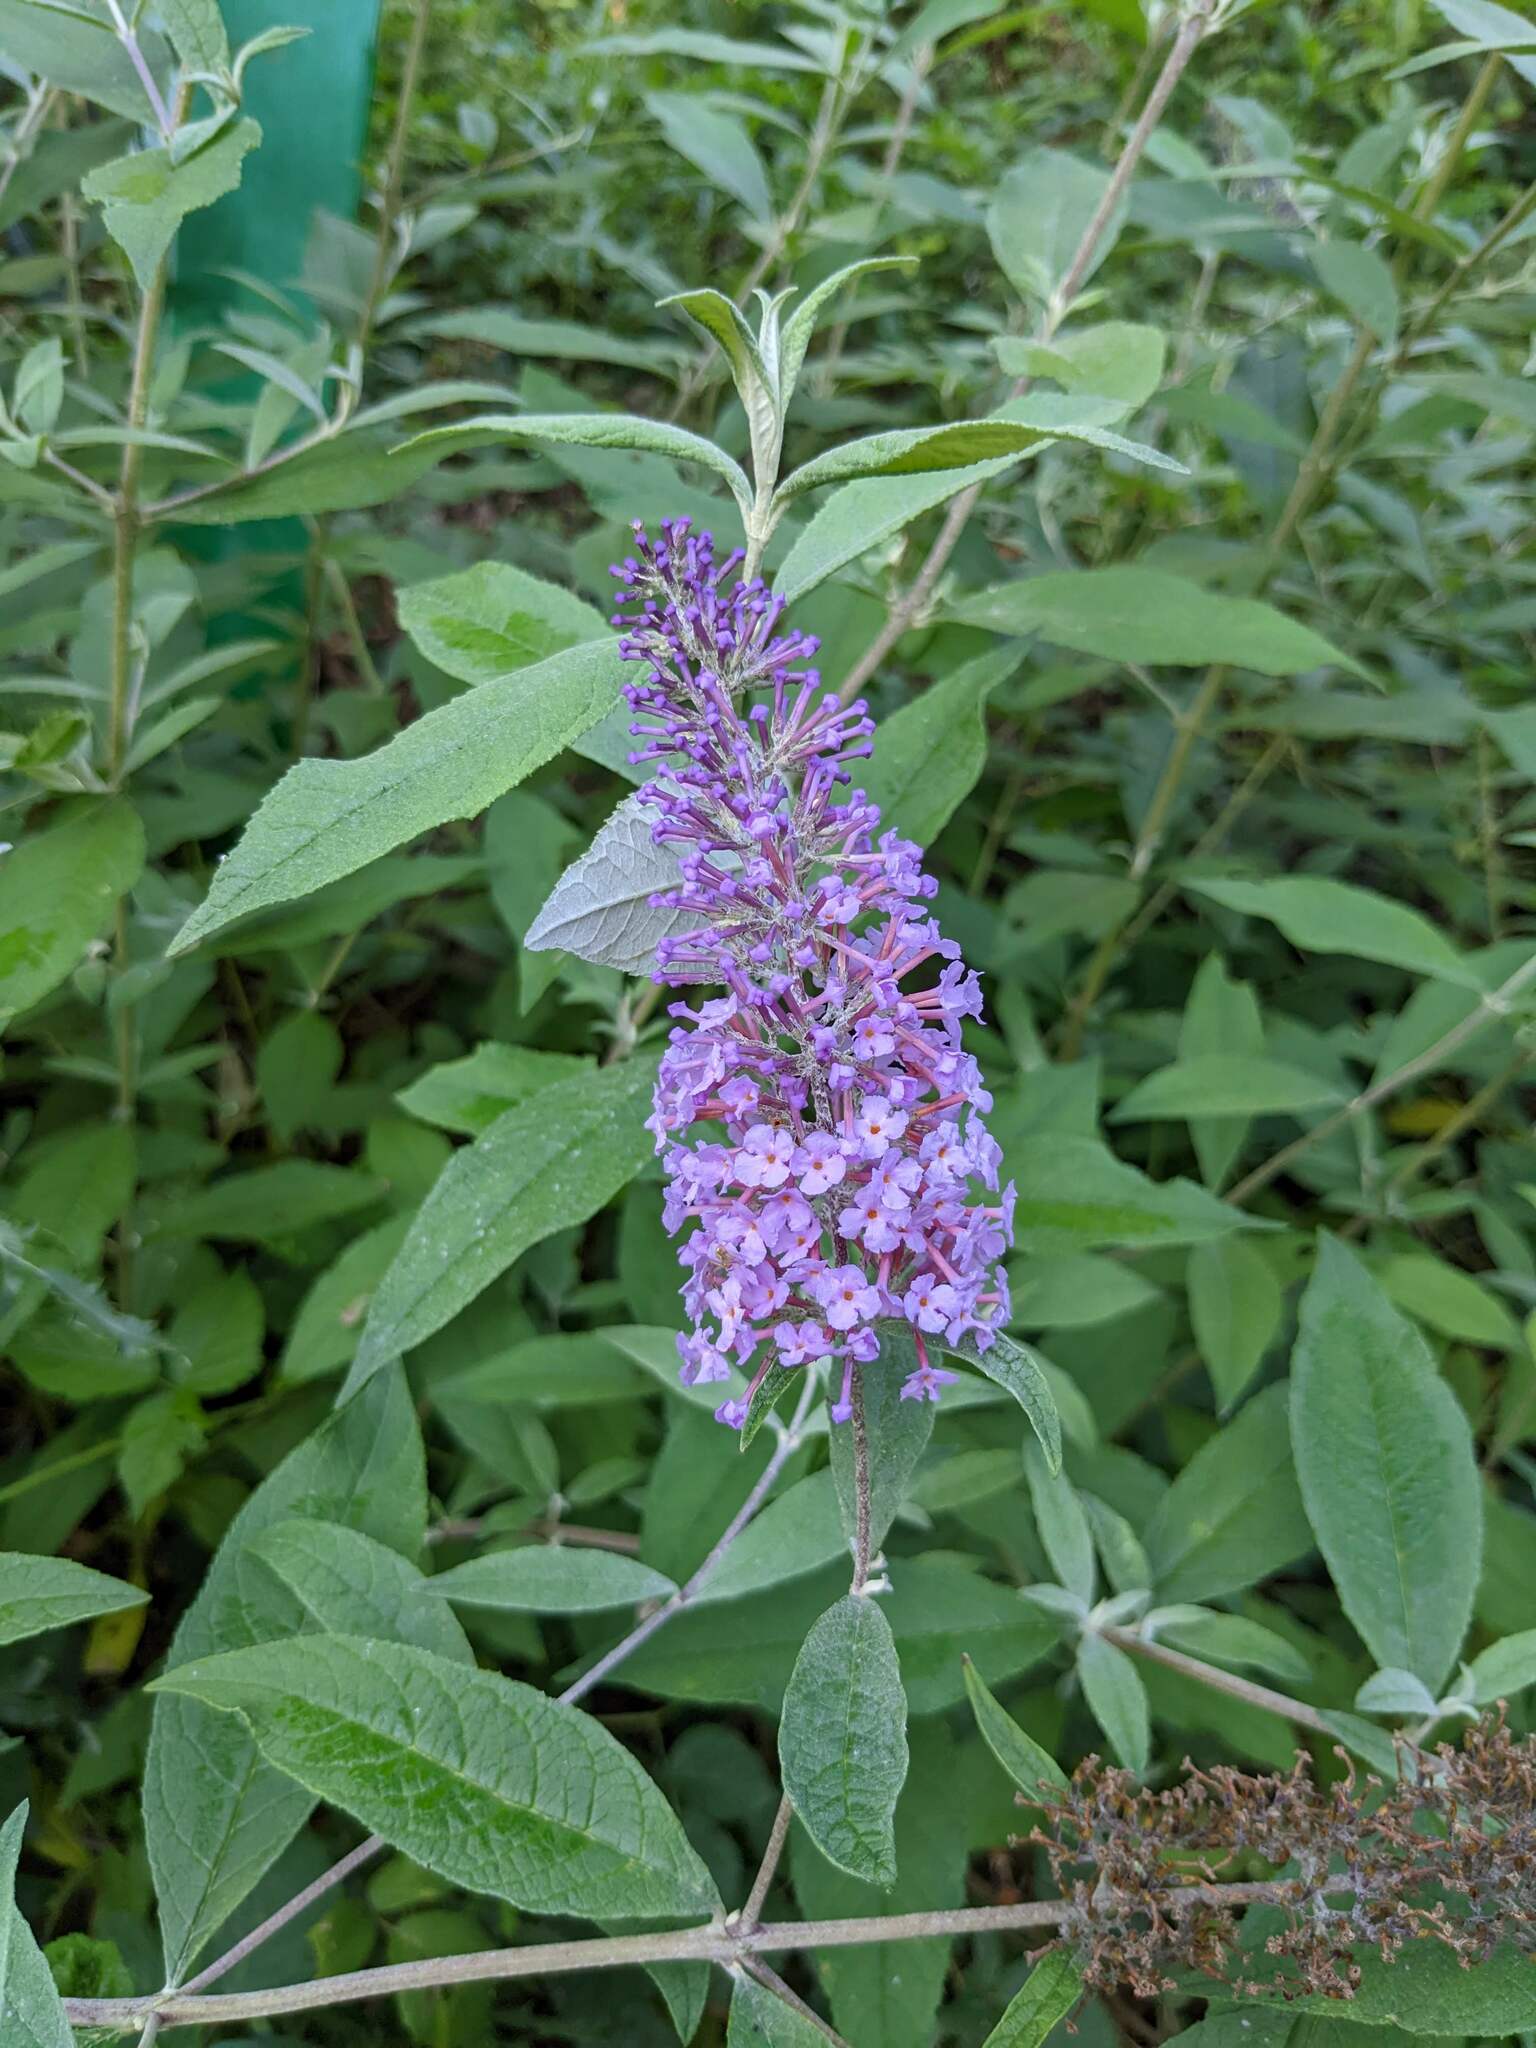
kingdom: Plantae
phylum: Tracheophyta
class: Magnoliopsida
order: Lamiales
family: Scrophulariaceae
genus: Buddleja
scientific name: Buddleja davidii
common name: Butterfly-bush
